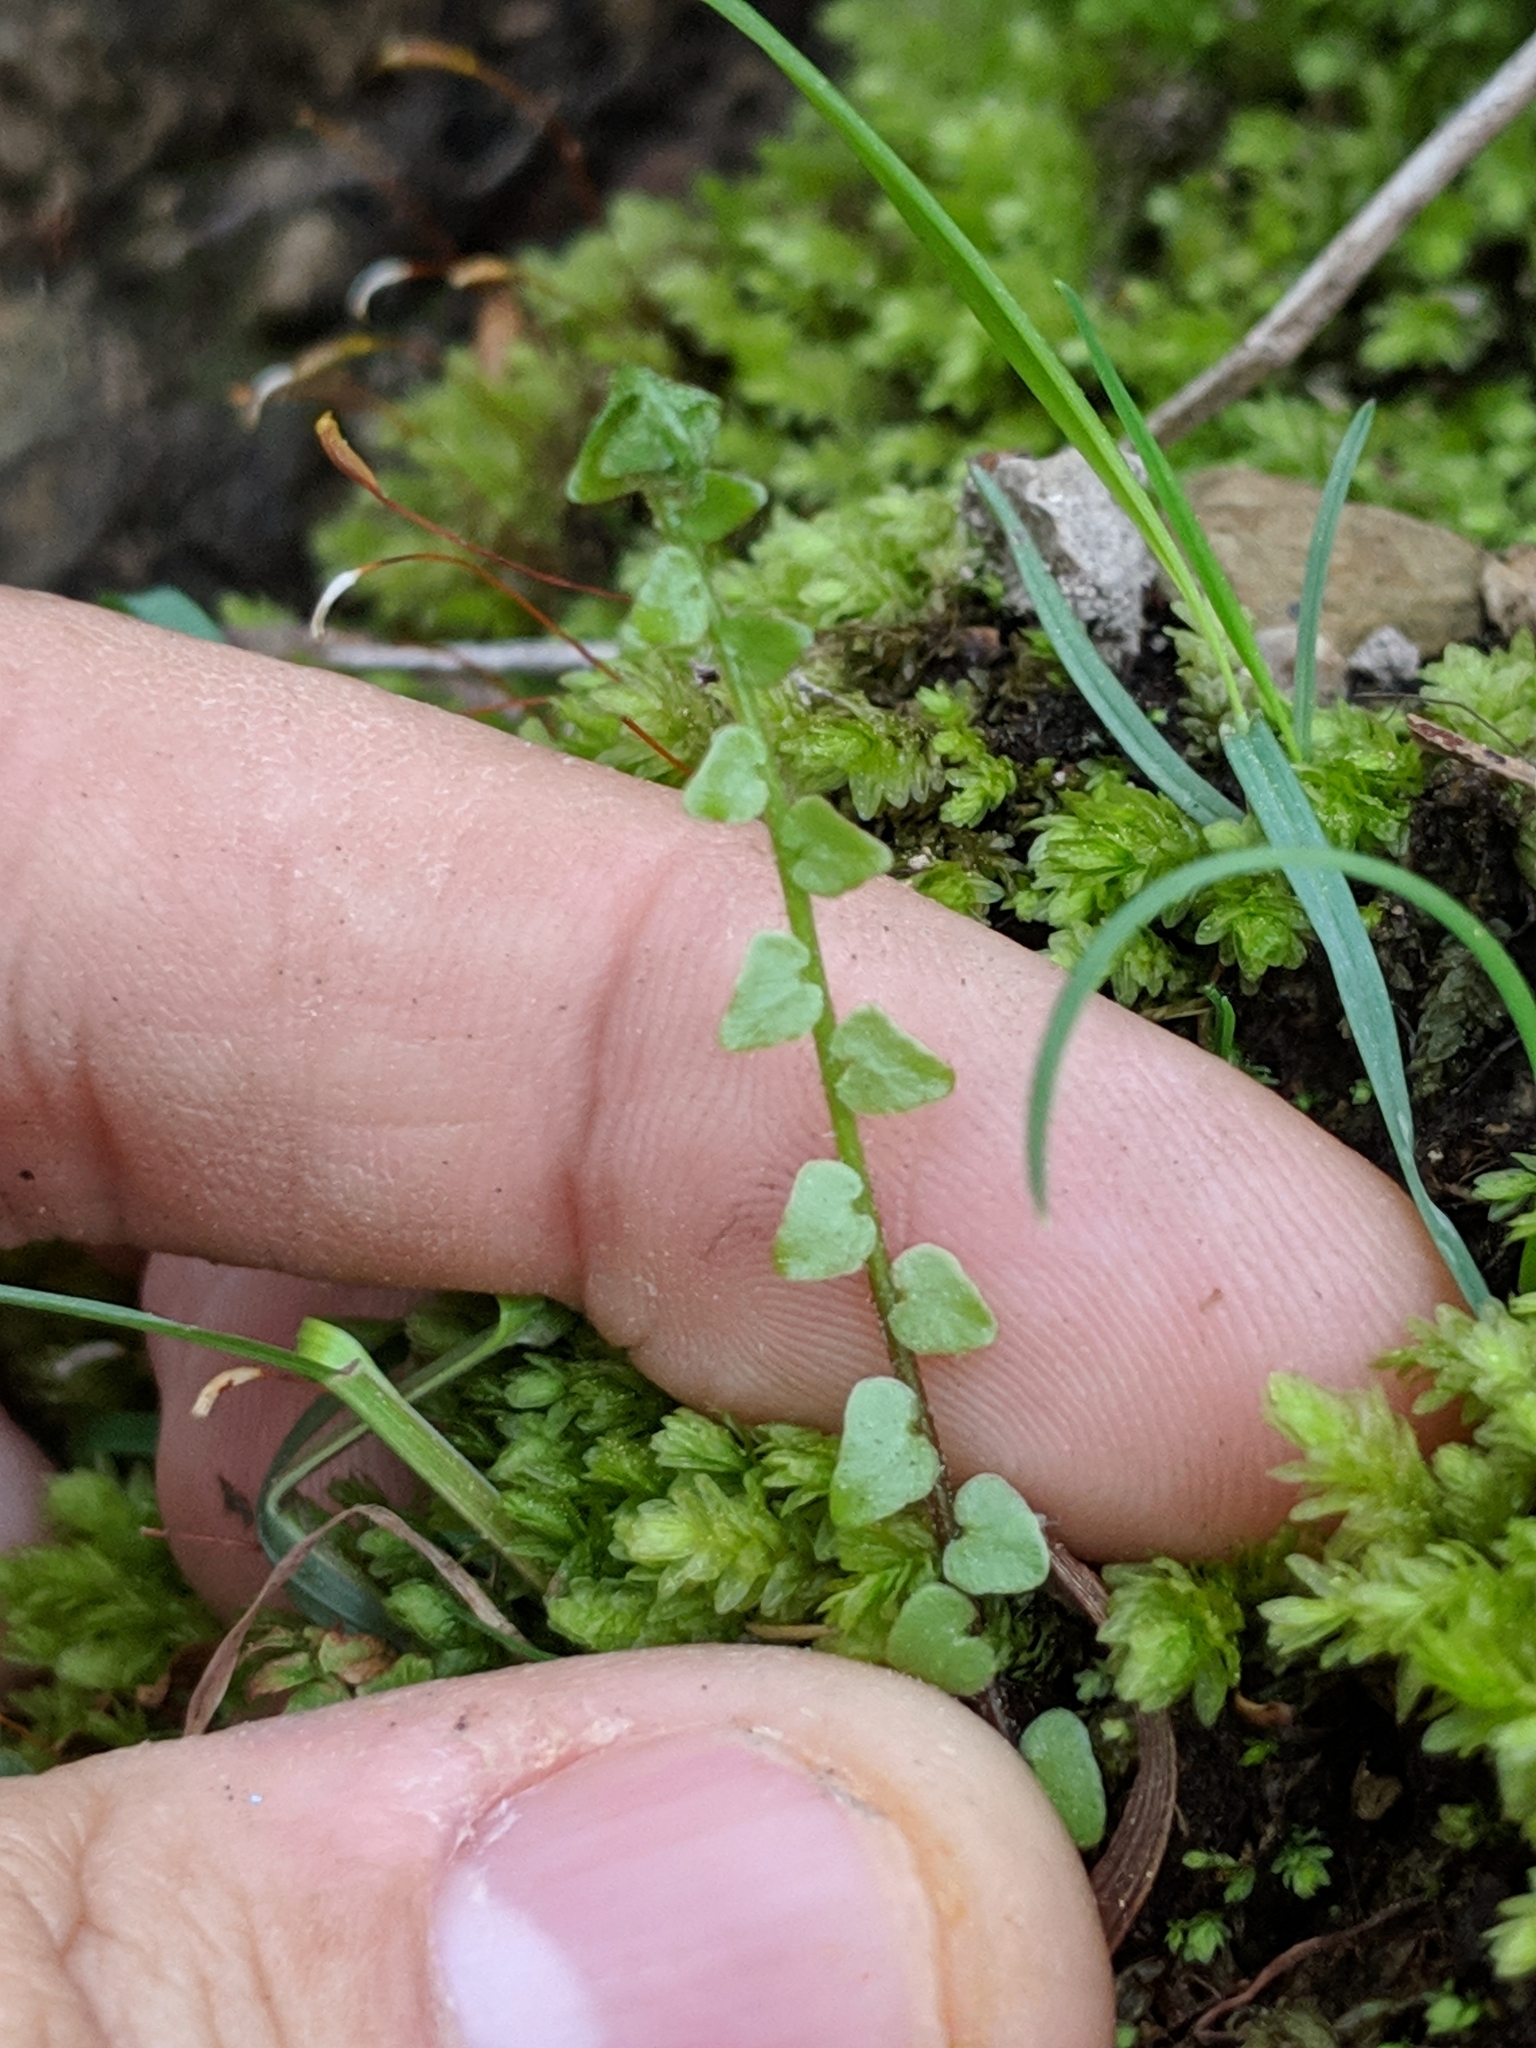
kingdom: Plantae
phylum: Tracheophyta
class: Polypodiopsida
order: Polypodiales
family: Aspleniaceae
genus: Asplenium
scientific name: Asplenium platyneuron
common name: Ebony spleenwort
